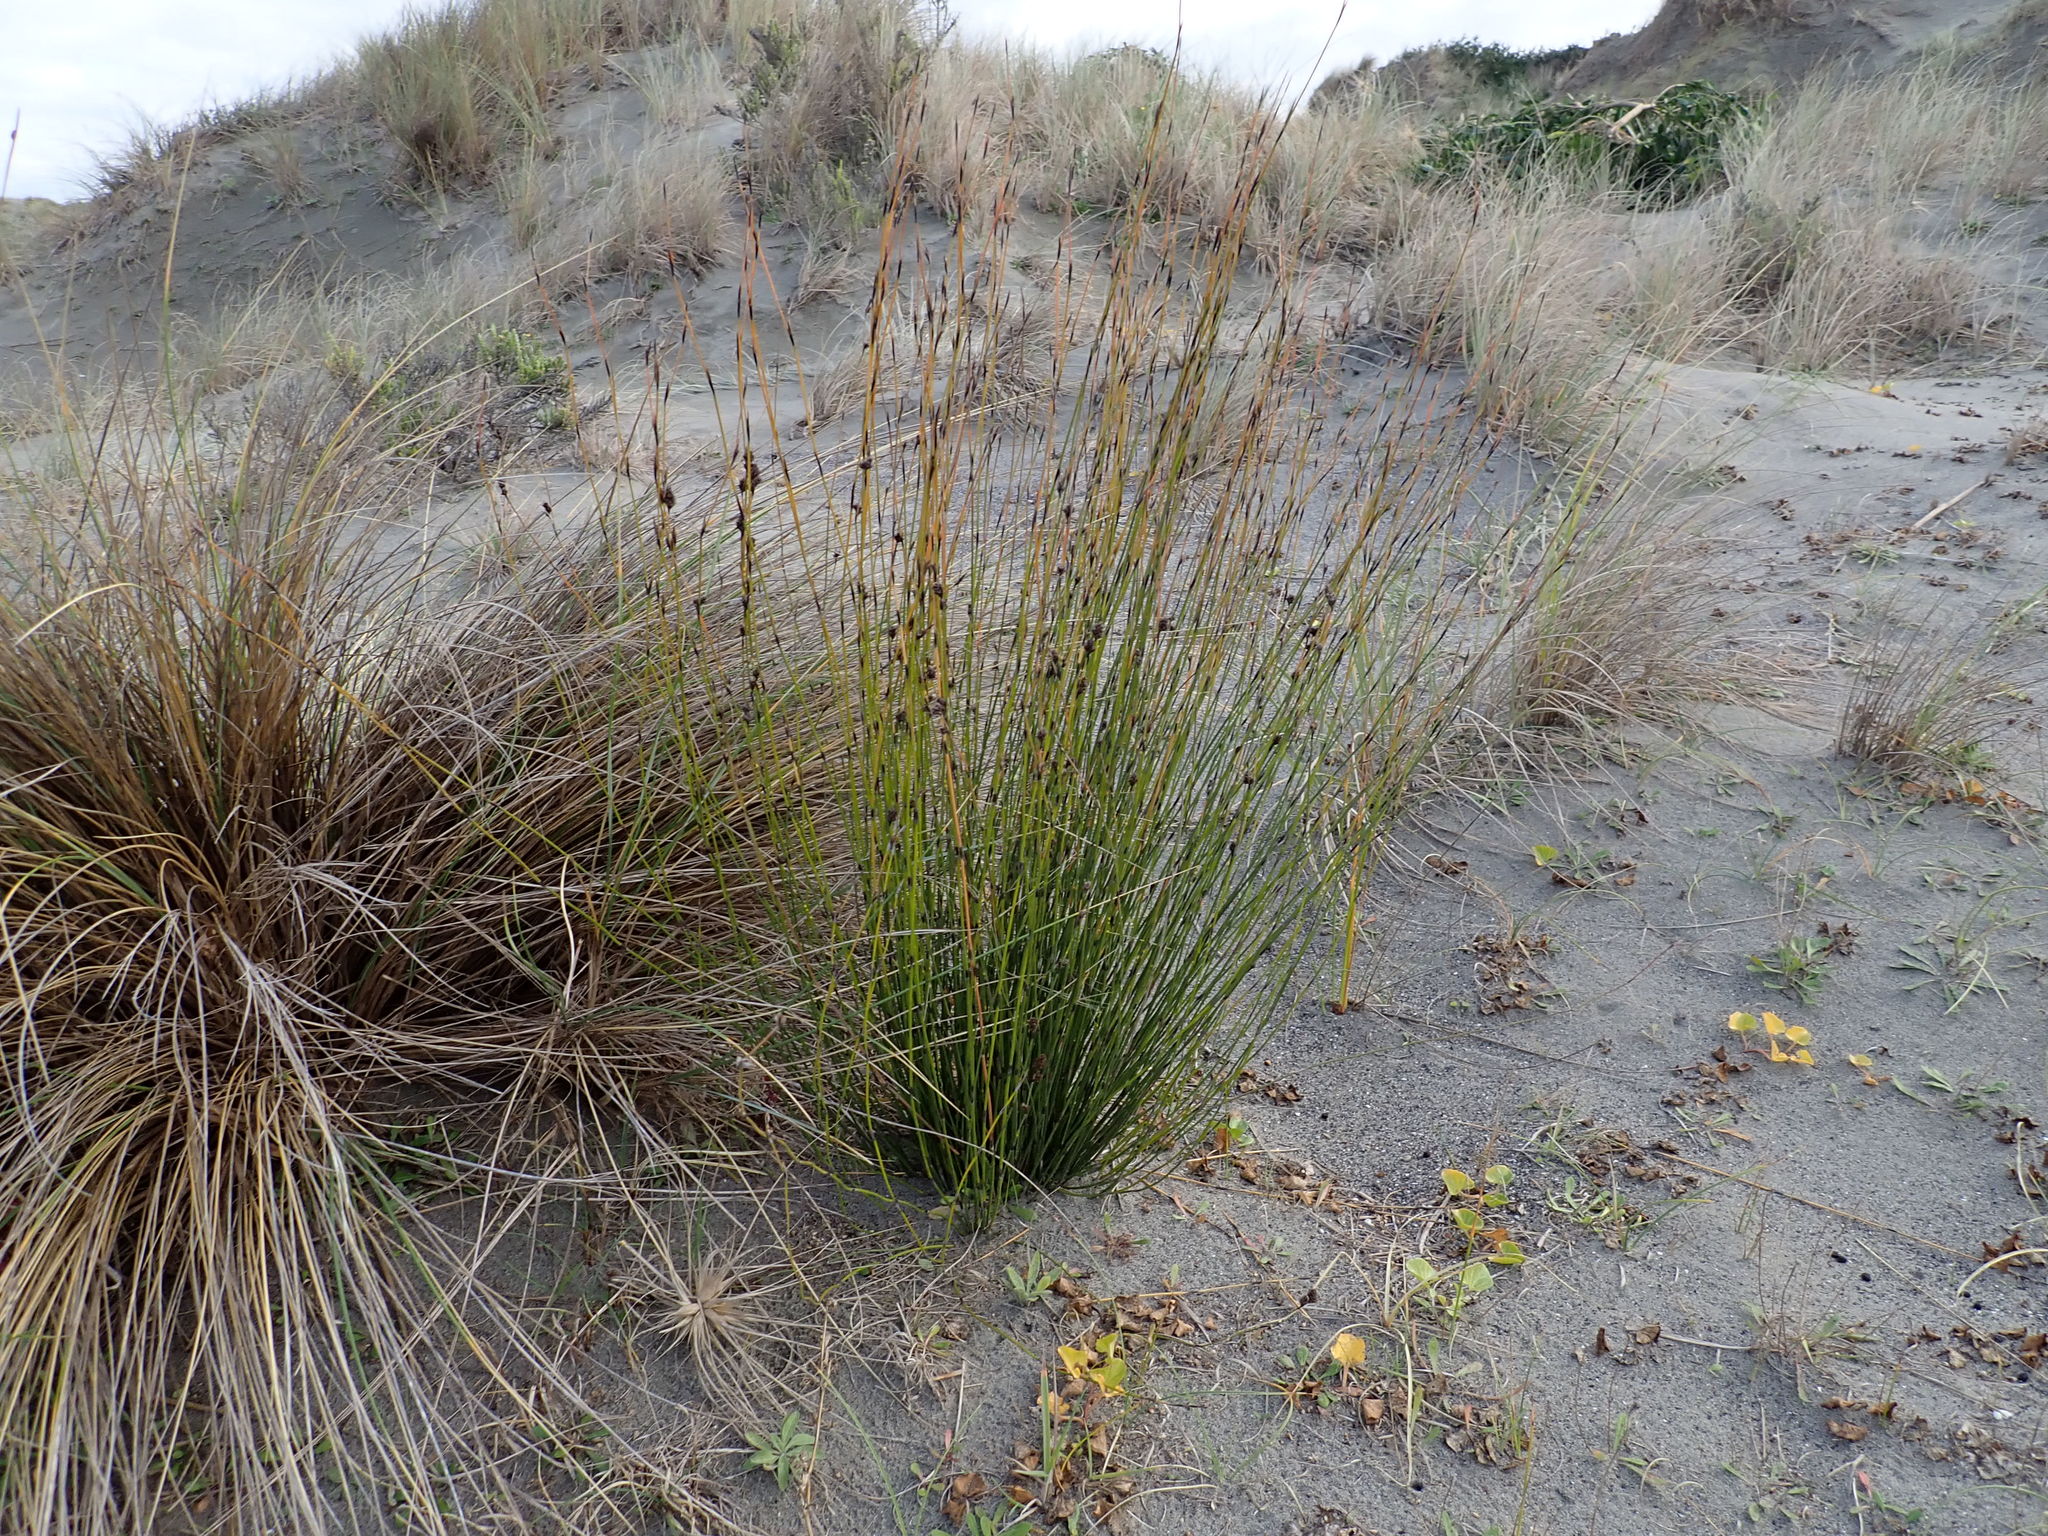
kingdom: Plantae
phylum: Tracheophyta
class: Liliopsida
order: Poales
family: Restionaceae
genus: Apodasmia
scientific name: Apodasmia similis
